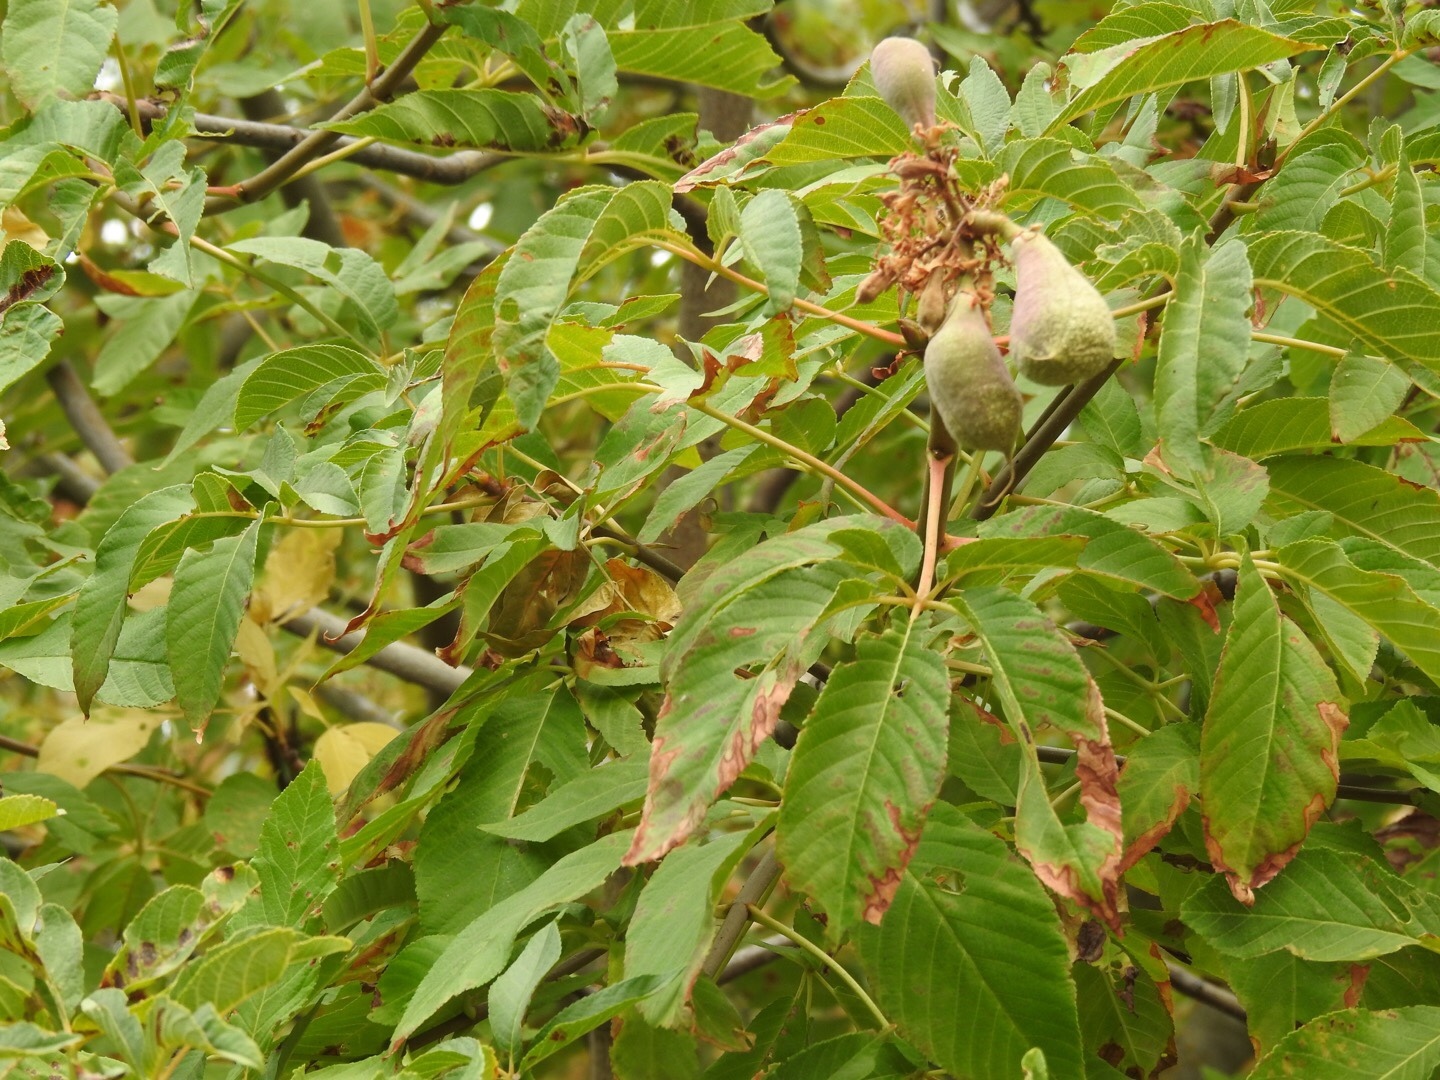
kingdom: Plantae
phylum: Tracheophyta
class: Magnoliopsida
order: Sapindales
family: Sapindaceae
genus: Aesculus
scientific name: Aesculus californica
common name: California buckeye
